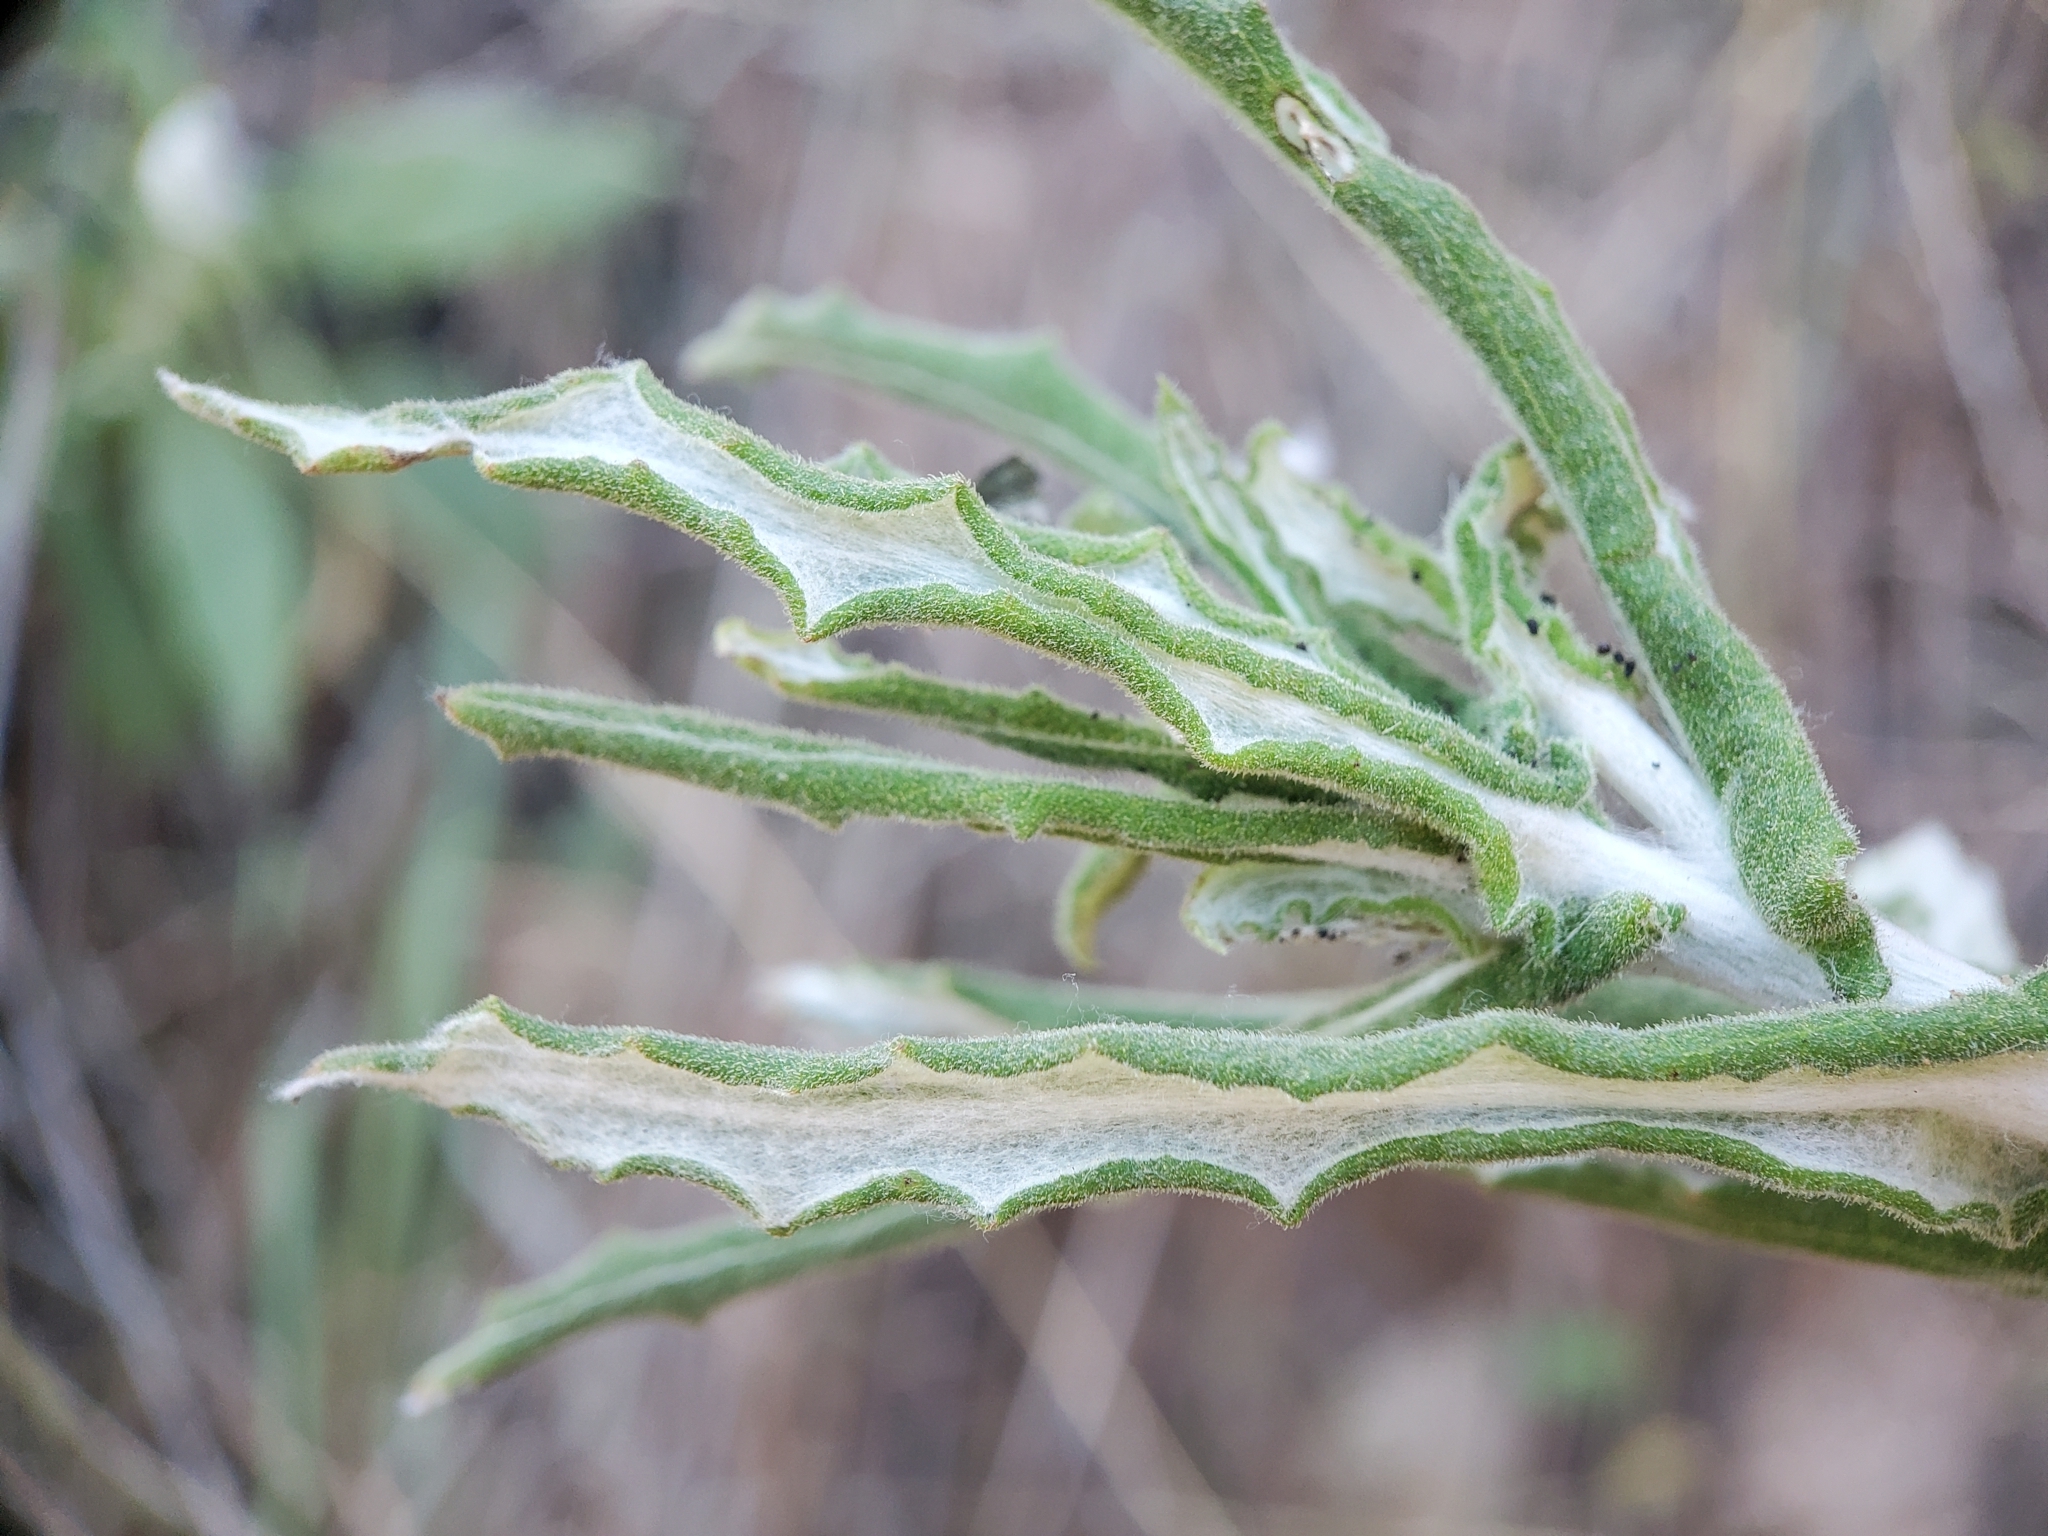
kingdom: Plantae
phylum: Tracheophyta
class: Magnoliopsida
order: Asterales
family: Asteraceae
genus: Pseudognaphalium
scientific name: Pseudognaphalium biolettii
